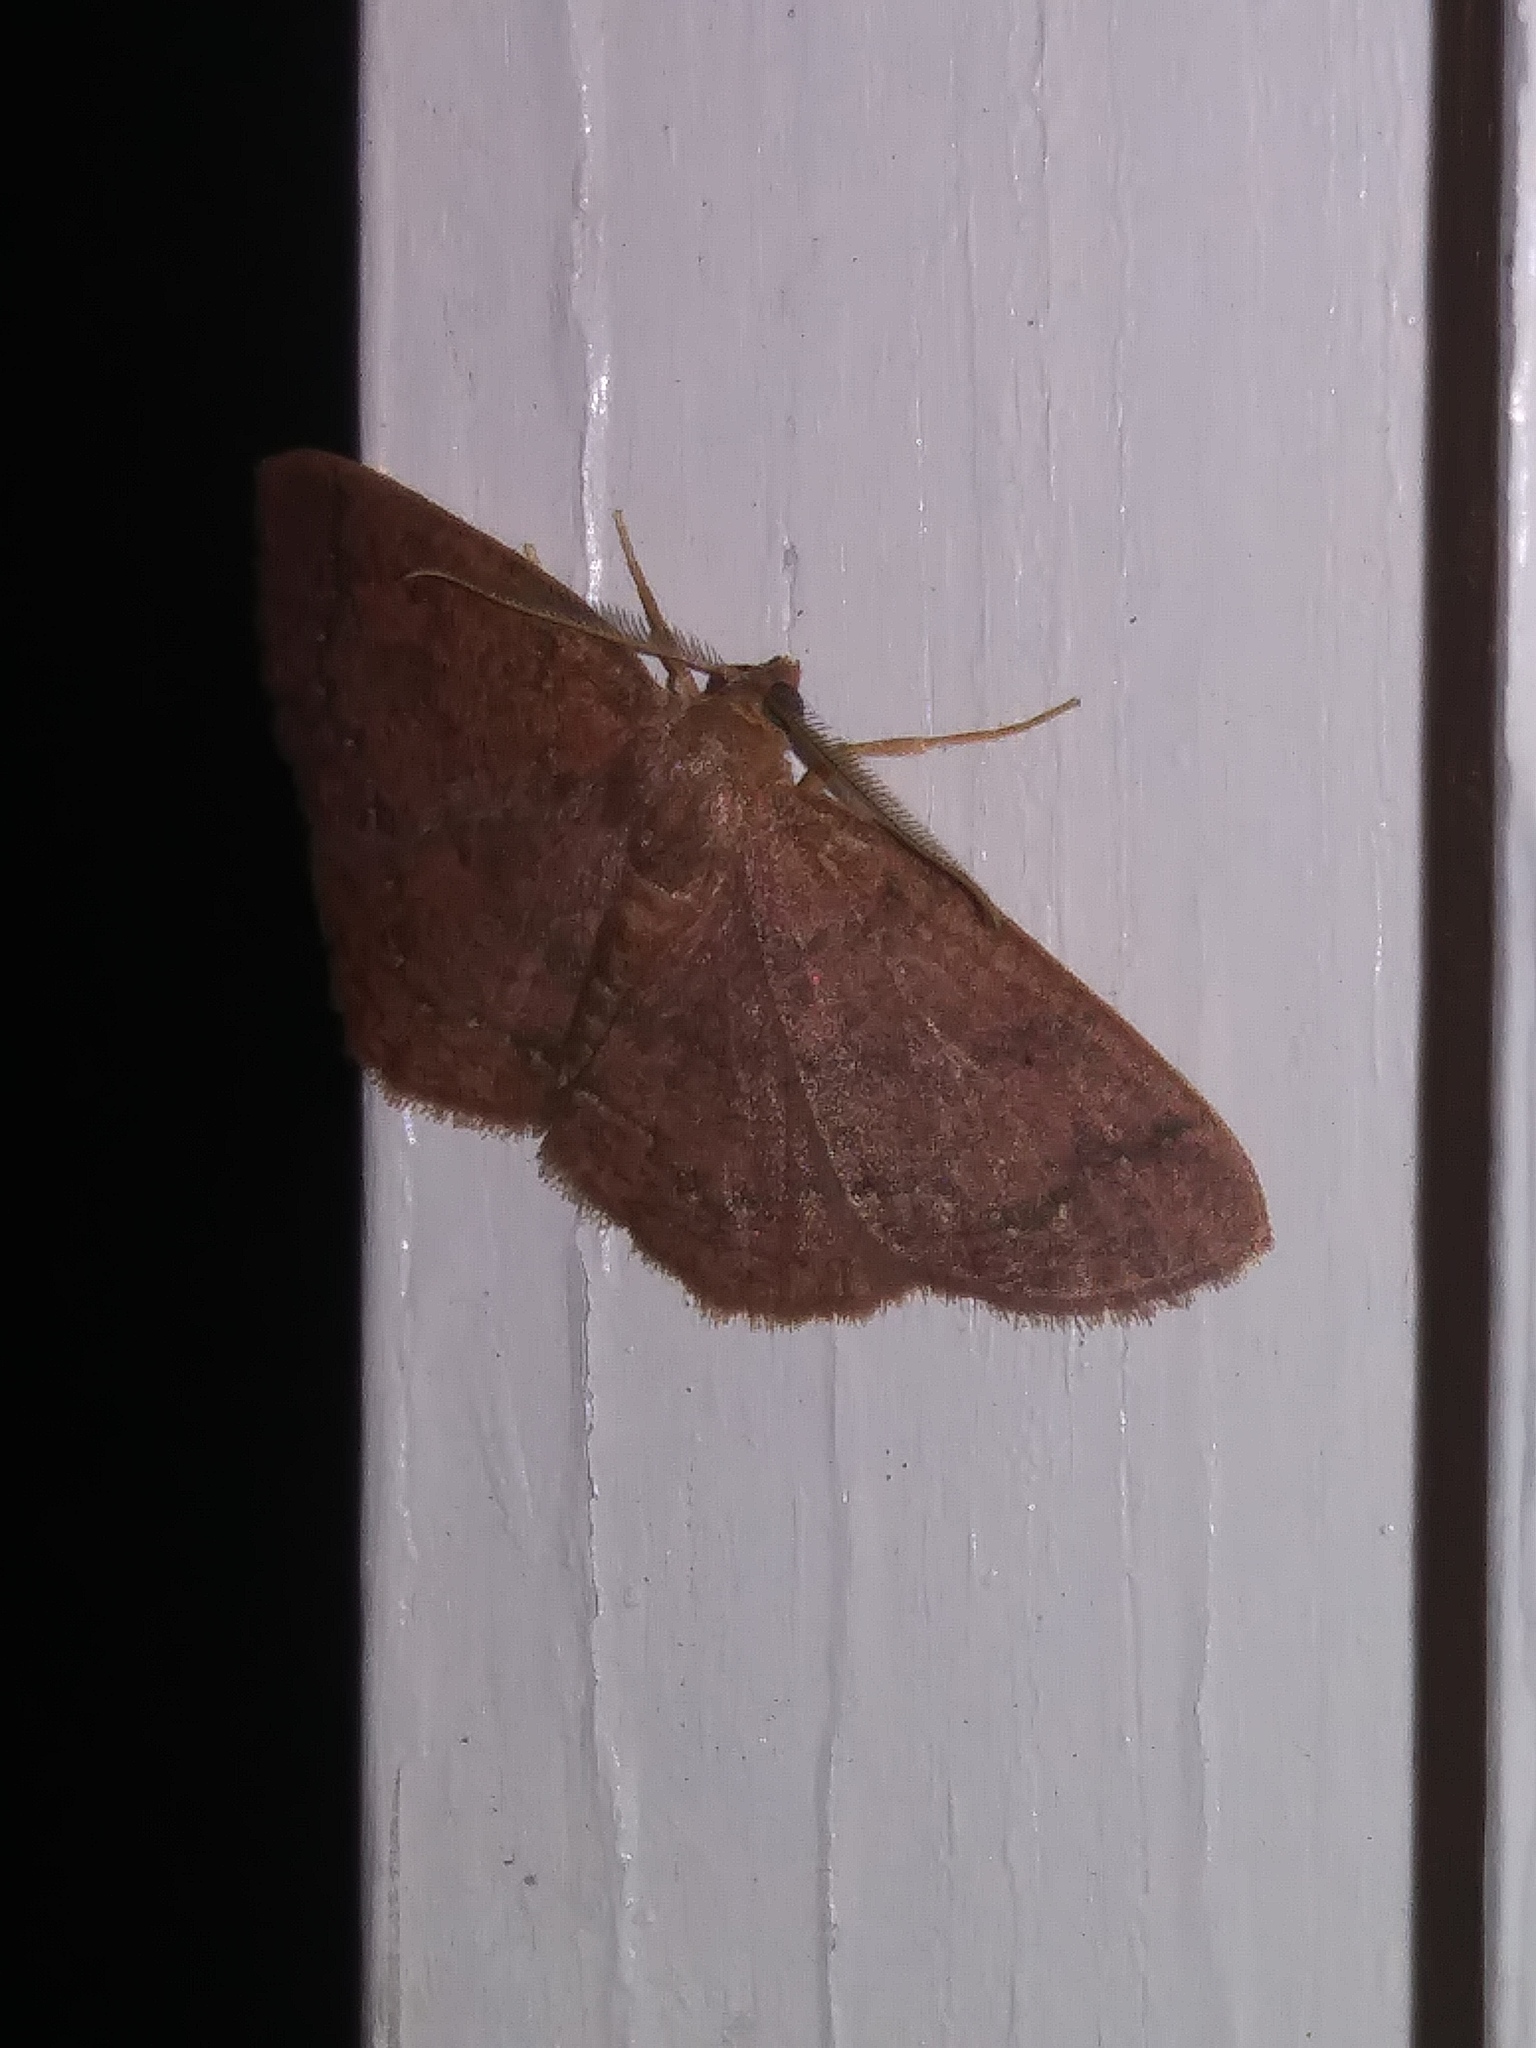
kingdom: Animalia
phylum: Arthropoda
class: Insecta
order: Lepidoptera
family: Geometridae
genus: Ilexia
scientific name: Ilexia intractata
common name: Black-dotted ruddy moth
